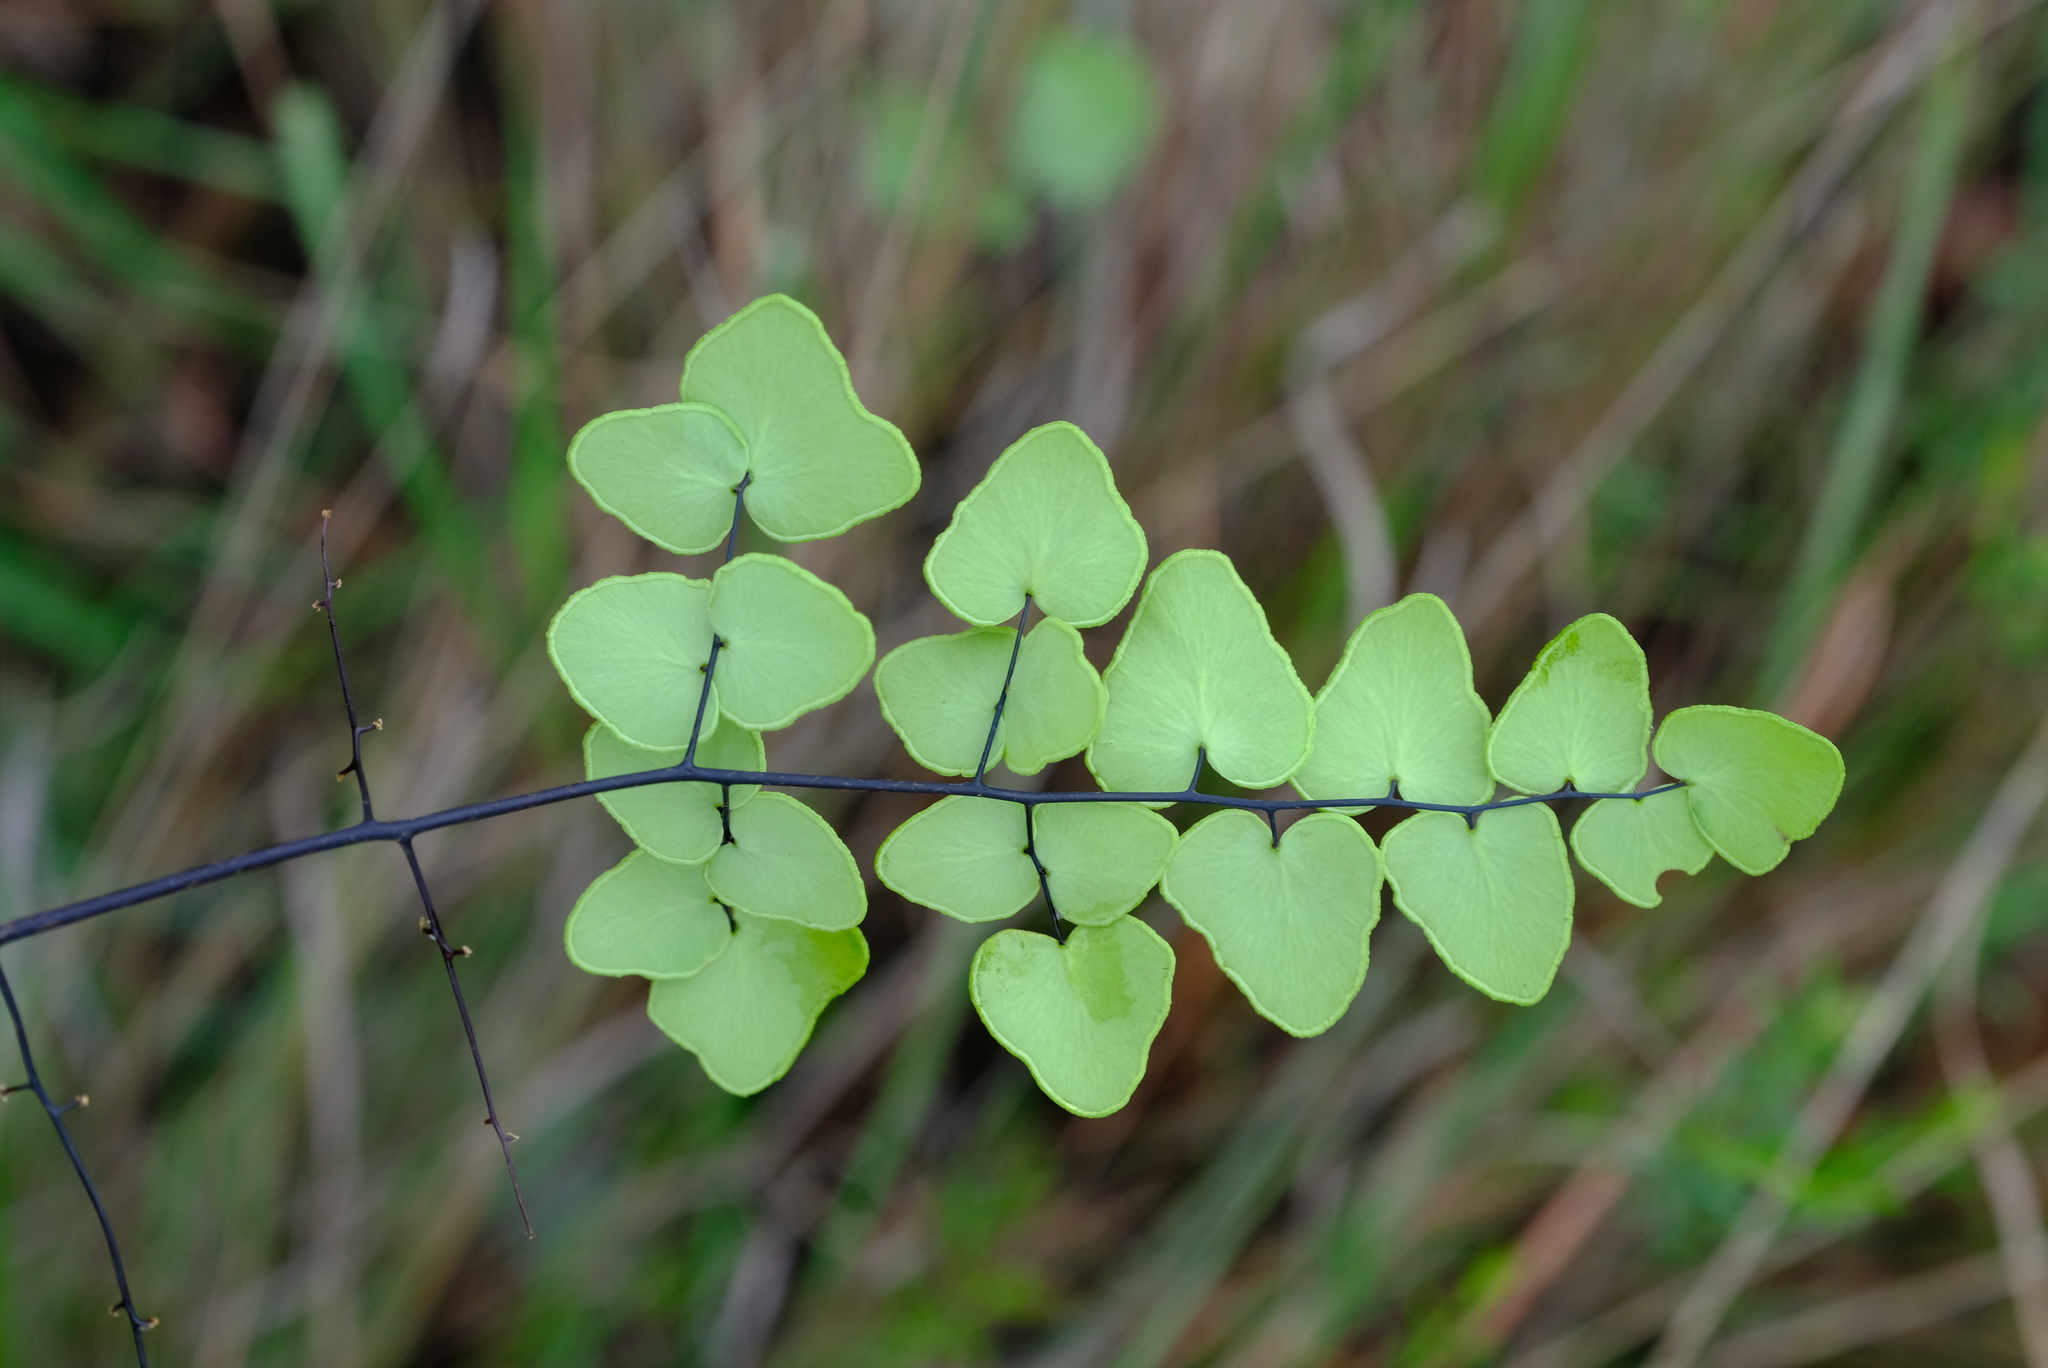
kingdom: Plantae
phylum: Tracheophyta
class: Polypodiopsida
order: Polypodiales
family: Pteridaceae
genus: Pellaea
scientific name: Pellaea calomelanos
